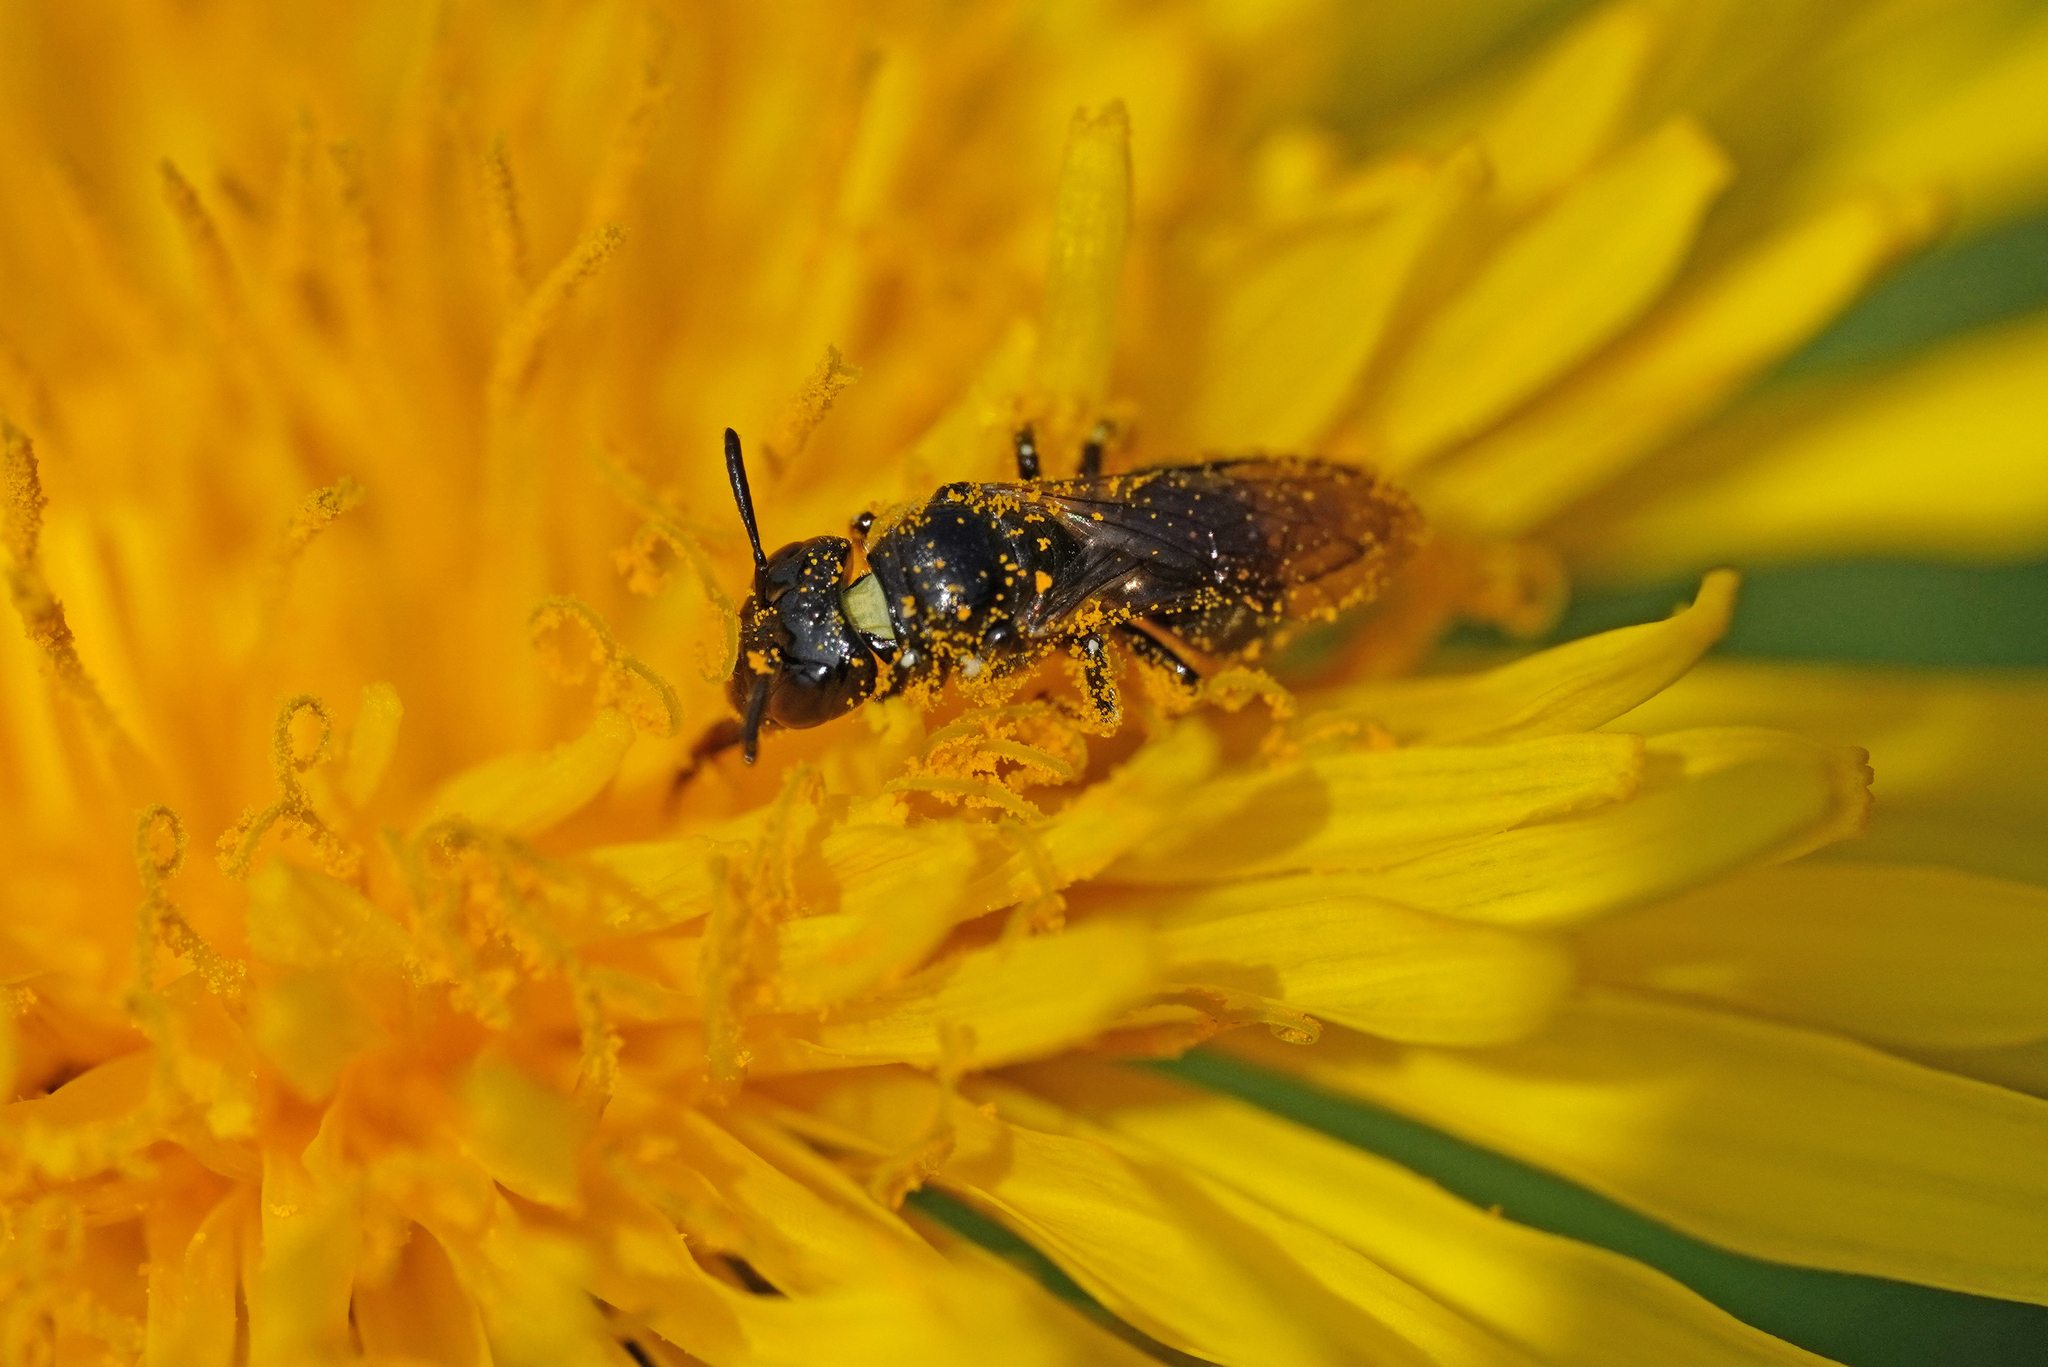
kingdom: Animalia
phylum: Arthropoda
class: Insecta
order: Hymenoptera
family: Apidae
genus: Ceratina
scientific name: Ceratina cucurbitina
